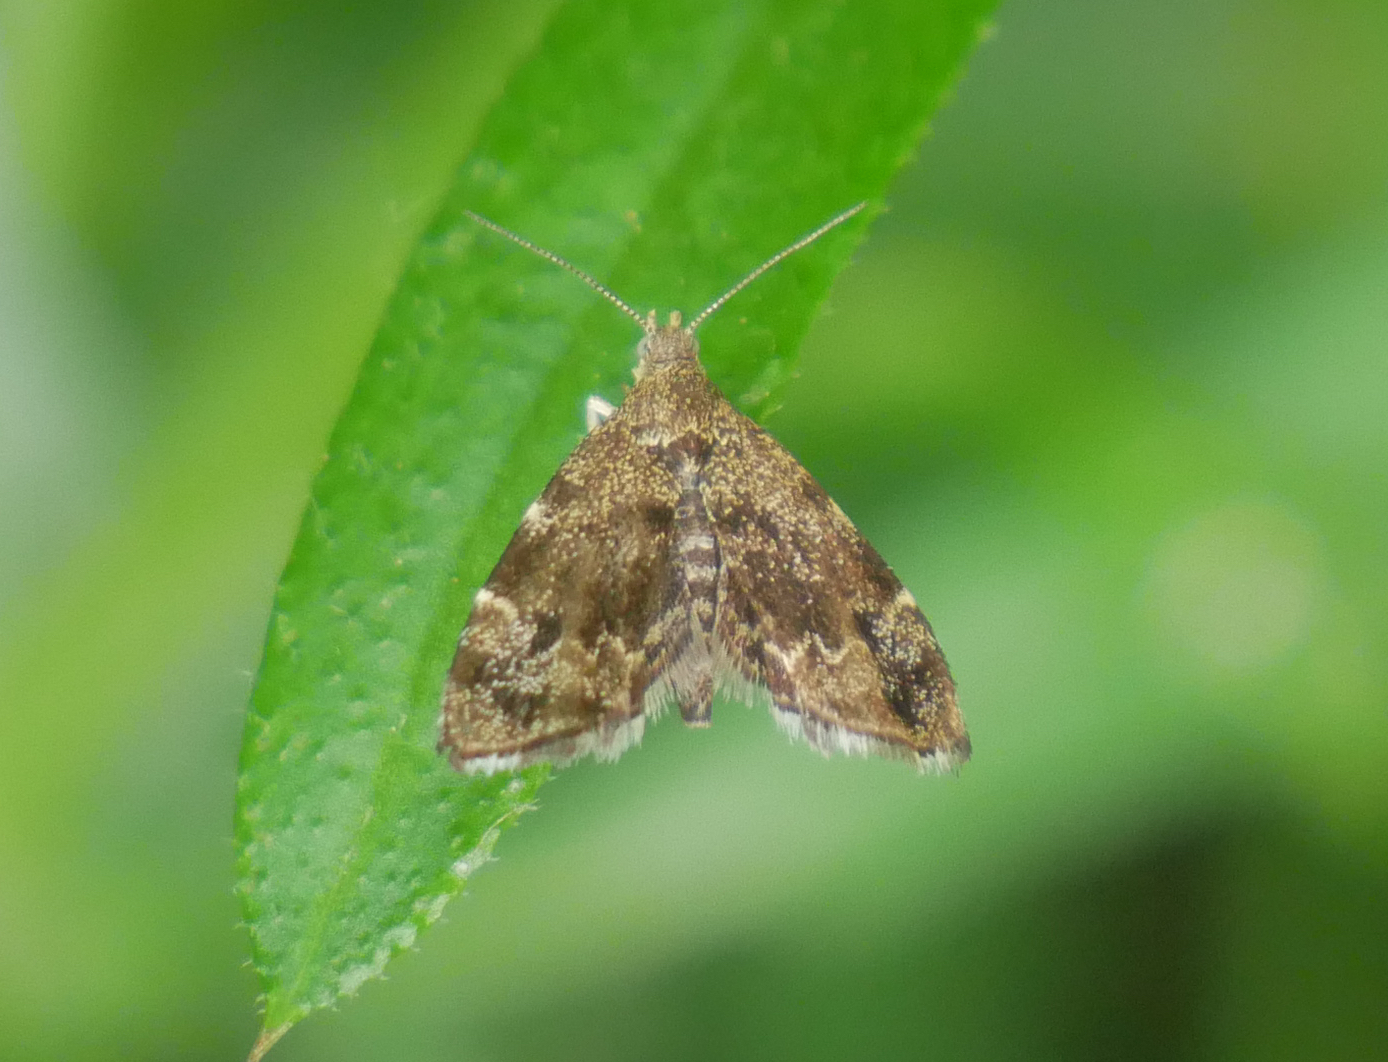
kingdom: Animalia
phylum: Arthropoda
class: Insecta
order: Lepidoptera
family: Choreutidae
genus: Anthophila
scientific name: Anthophila fabriciana
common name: Nettle-tap
